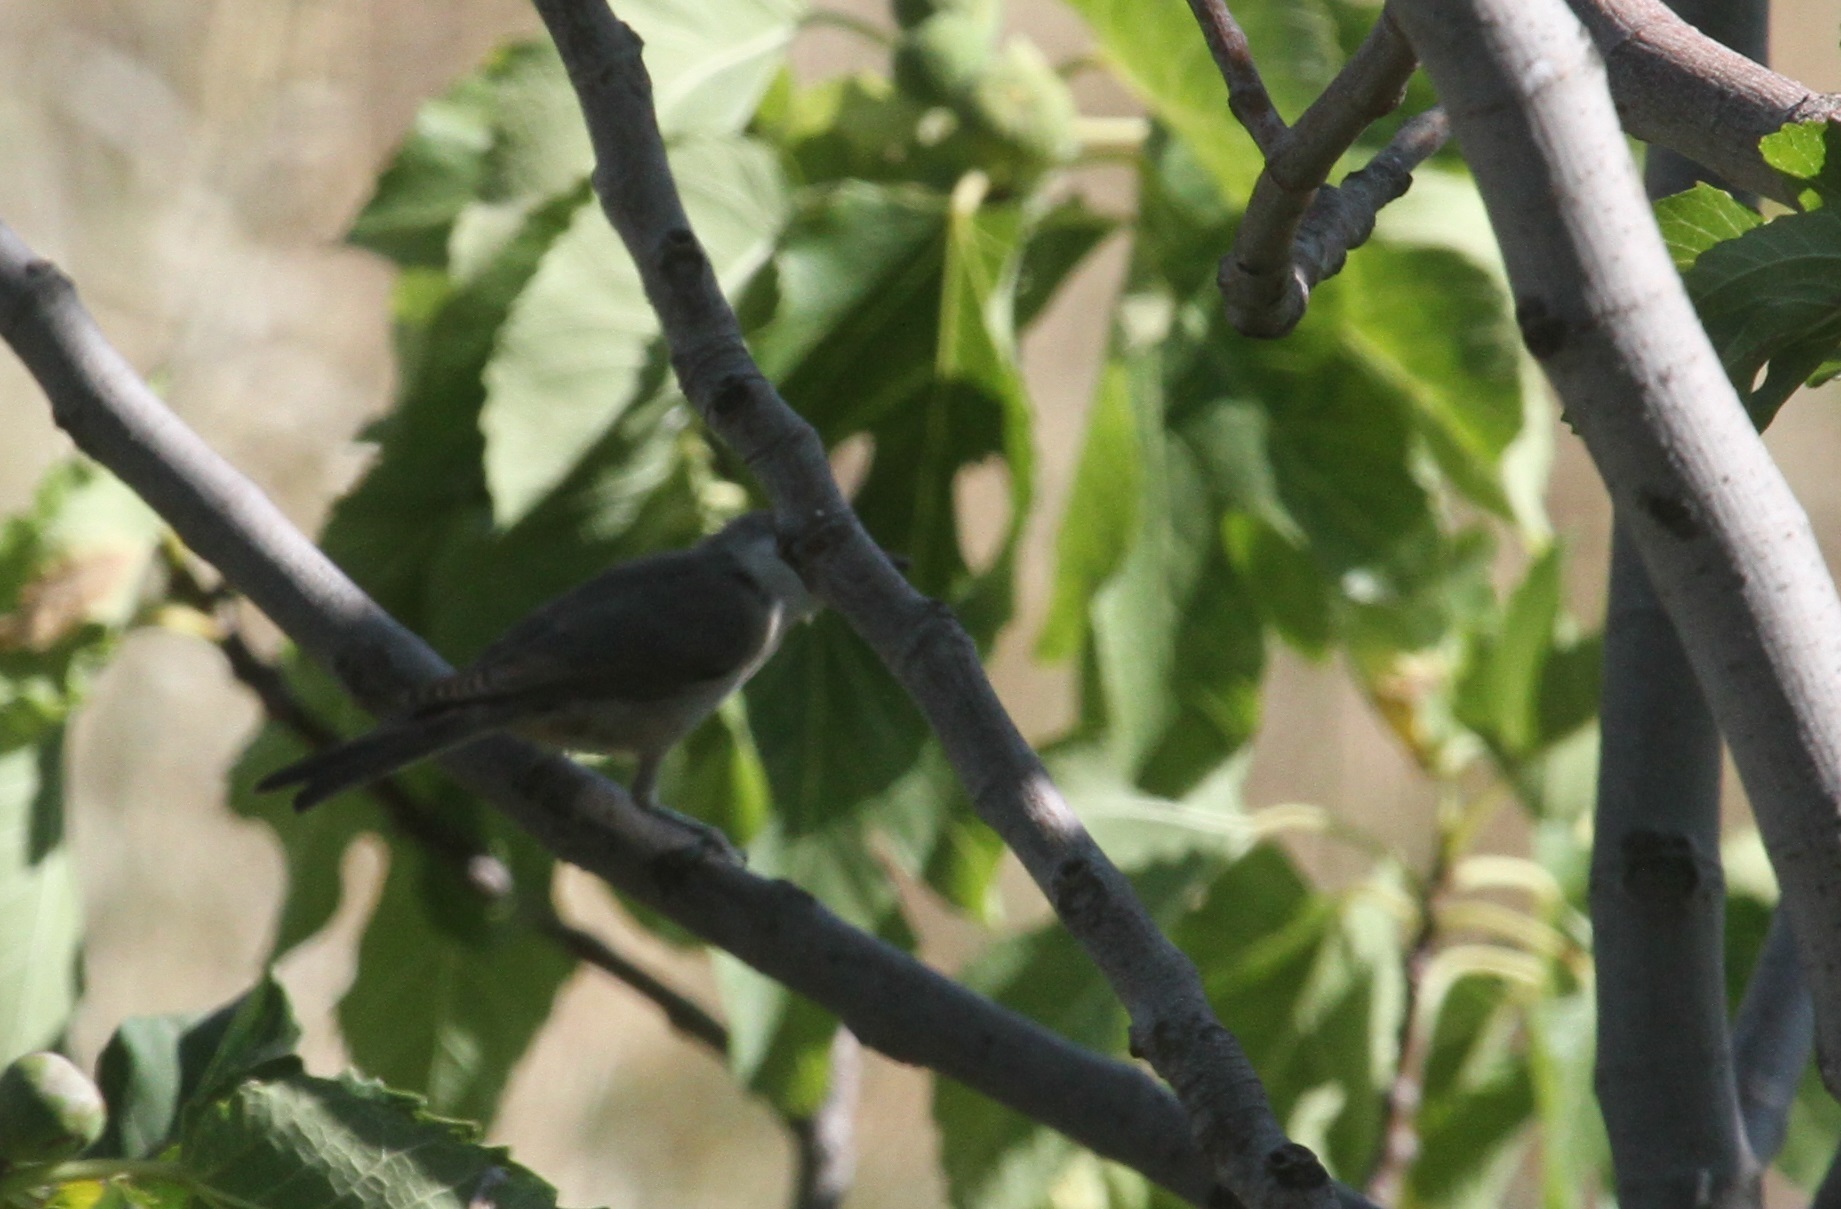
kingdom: Animalia
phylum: Chordata
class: Aves
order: Passeriformes
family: Sylviidae
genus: Sylvia
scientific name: Sylvia hortensis
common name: Orphean warbler
